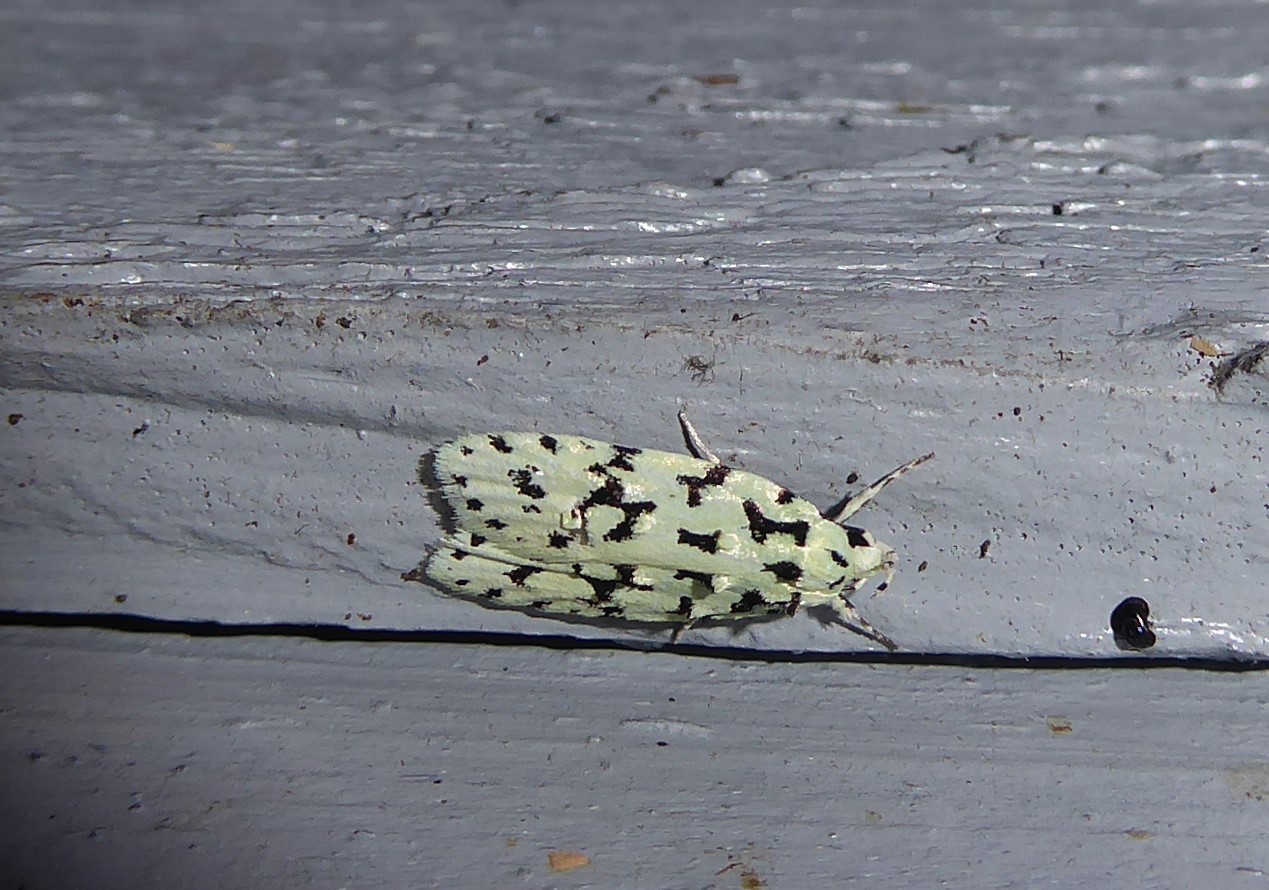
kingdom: Animalia
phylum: Arthropoda
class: Insecta
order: Lepidoptera
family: Oecophoridae
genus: Izatha
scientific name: Izatha huttoni
